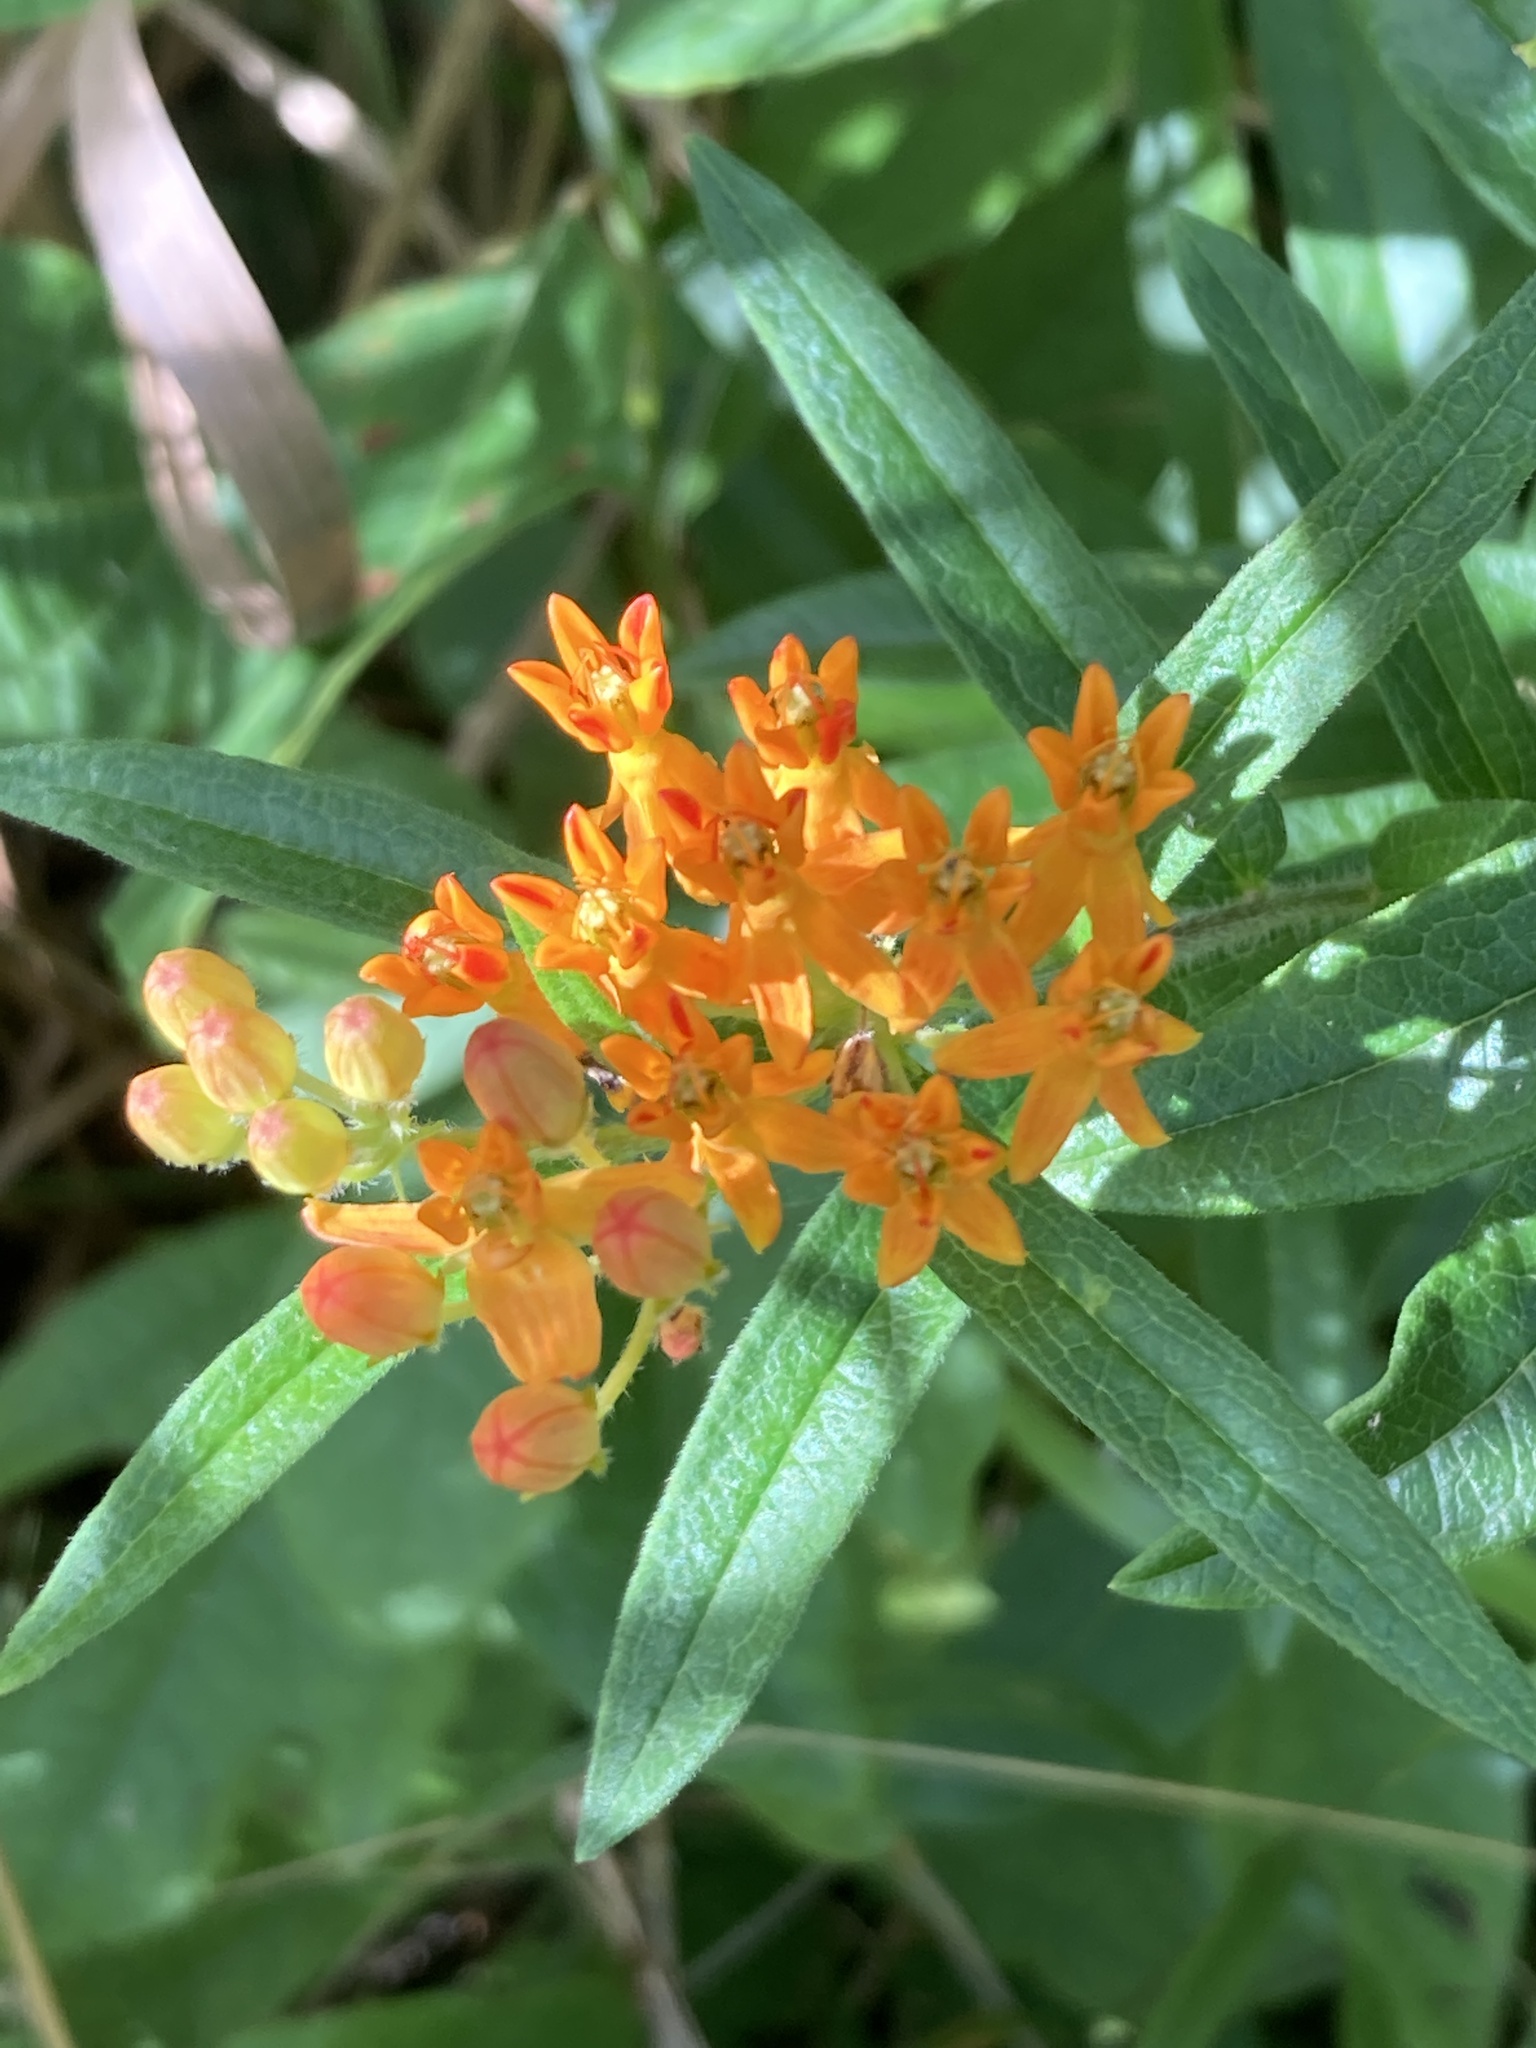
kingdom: Plantae
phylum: Tracheophyta
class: Magnoliopsida
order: Gentianales
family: Apocynaceae
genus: Asclepias
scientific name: Asclepias tuberosa
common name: Butterfly milkweed
